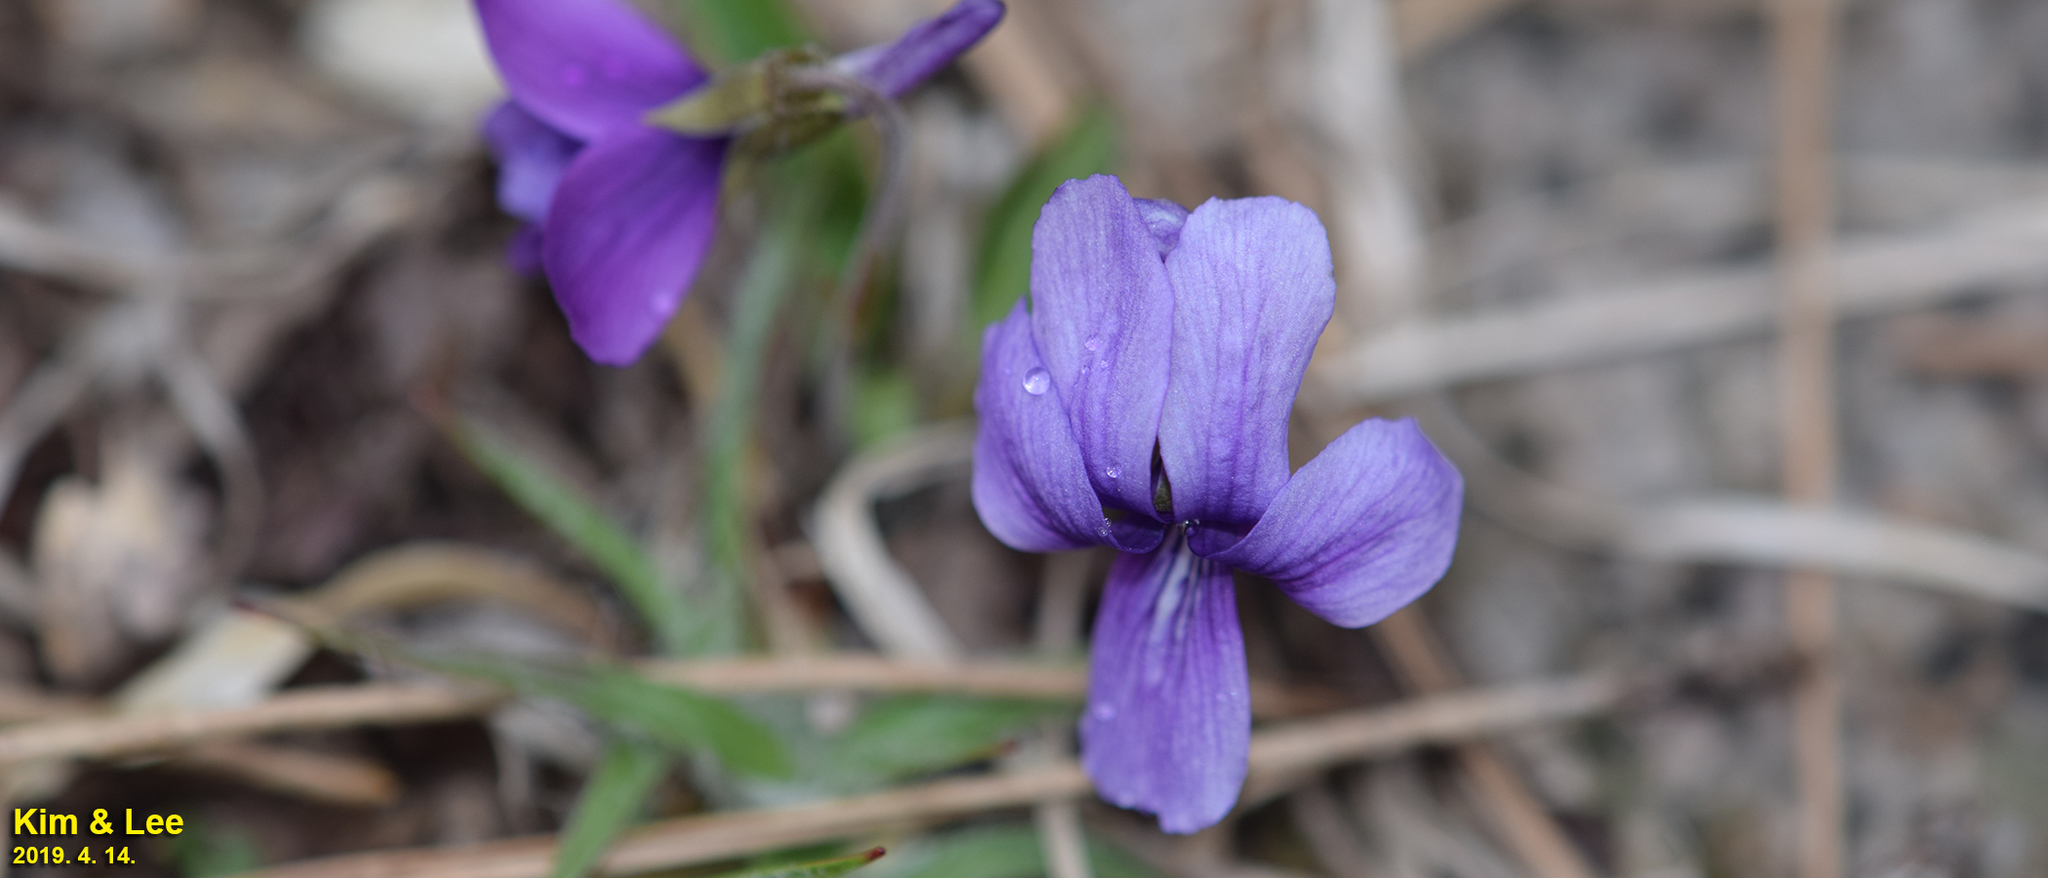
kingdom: Plantae
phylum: Tracheophyta
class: Magnoliopsida
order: Malpighiales
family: Violaceae
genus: Viola
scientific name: Viola philippica
